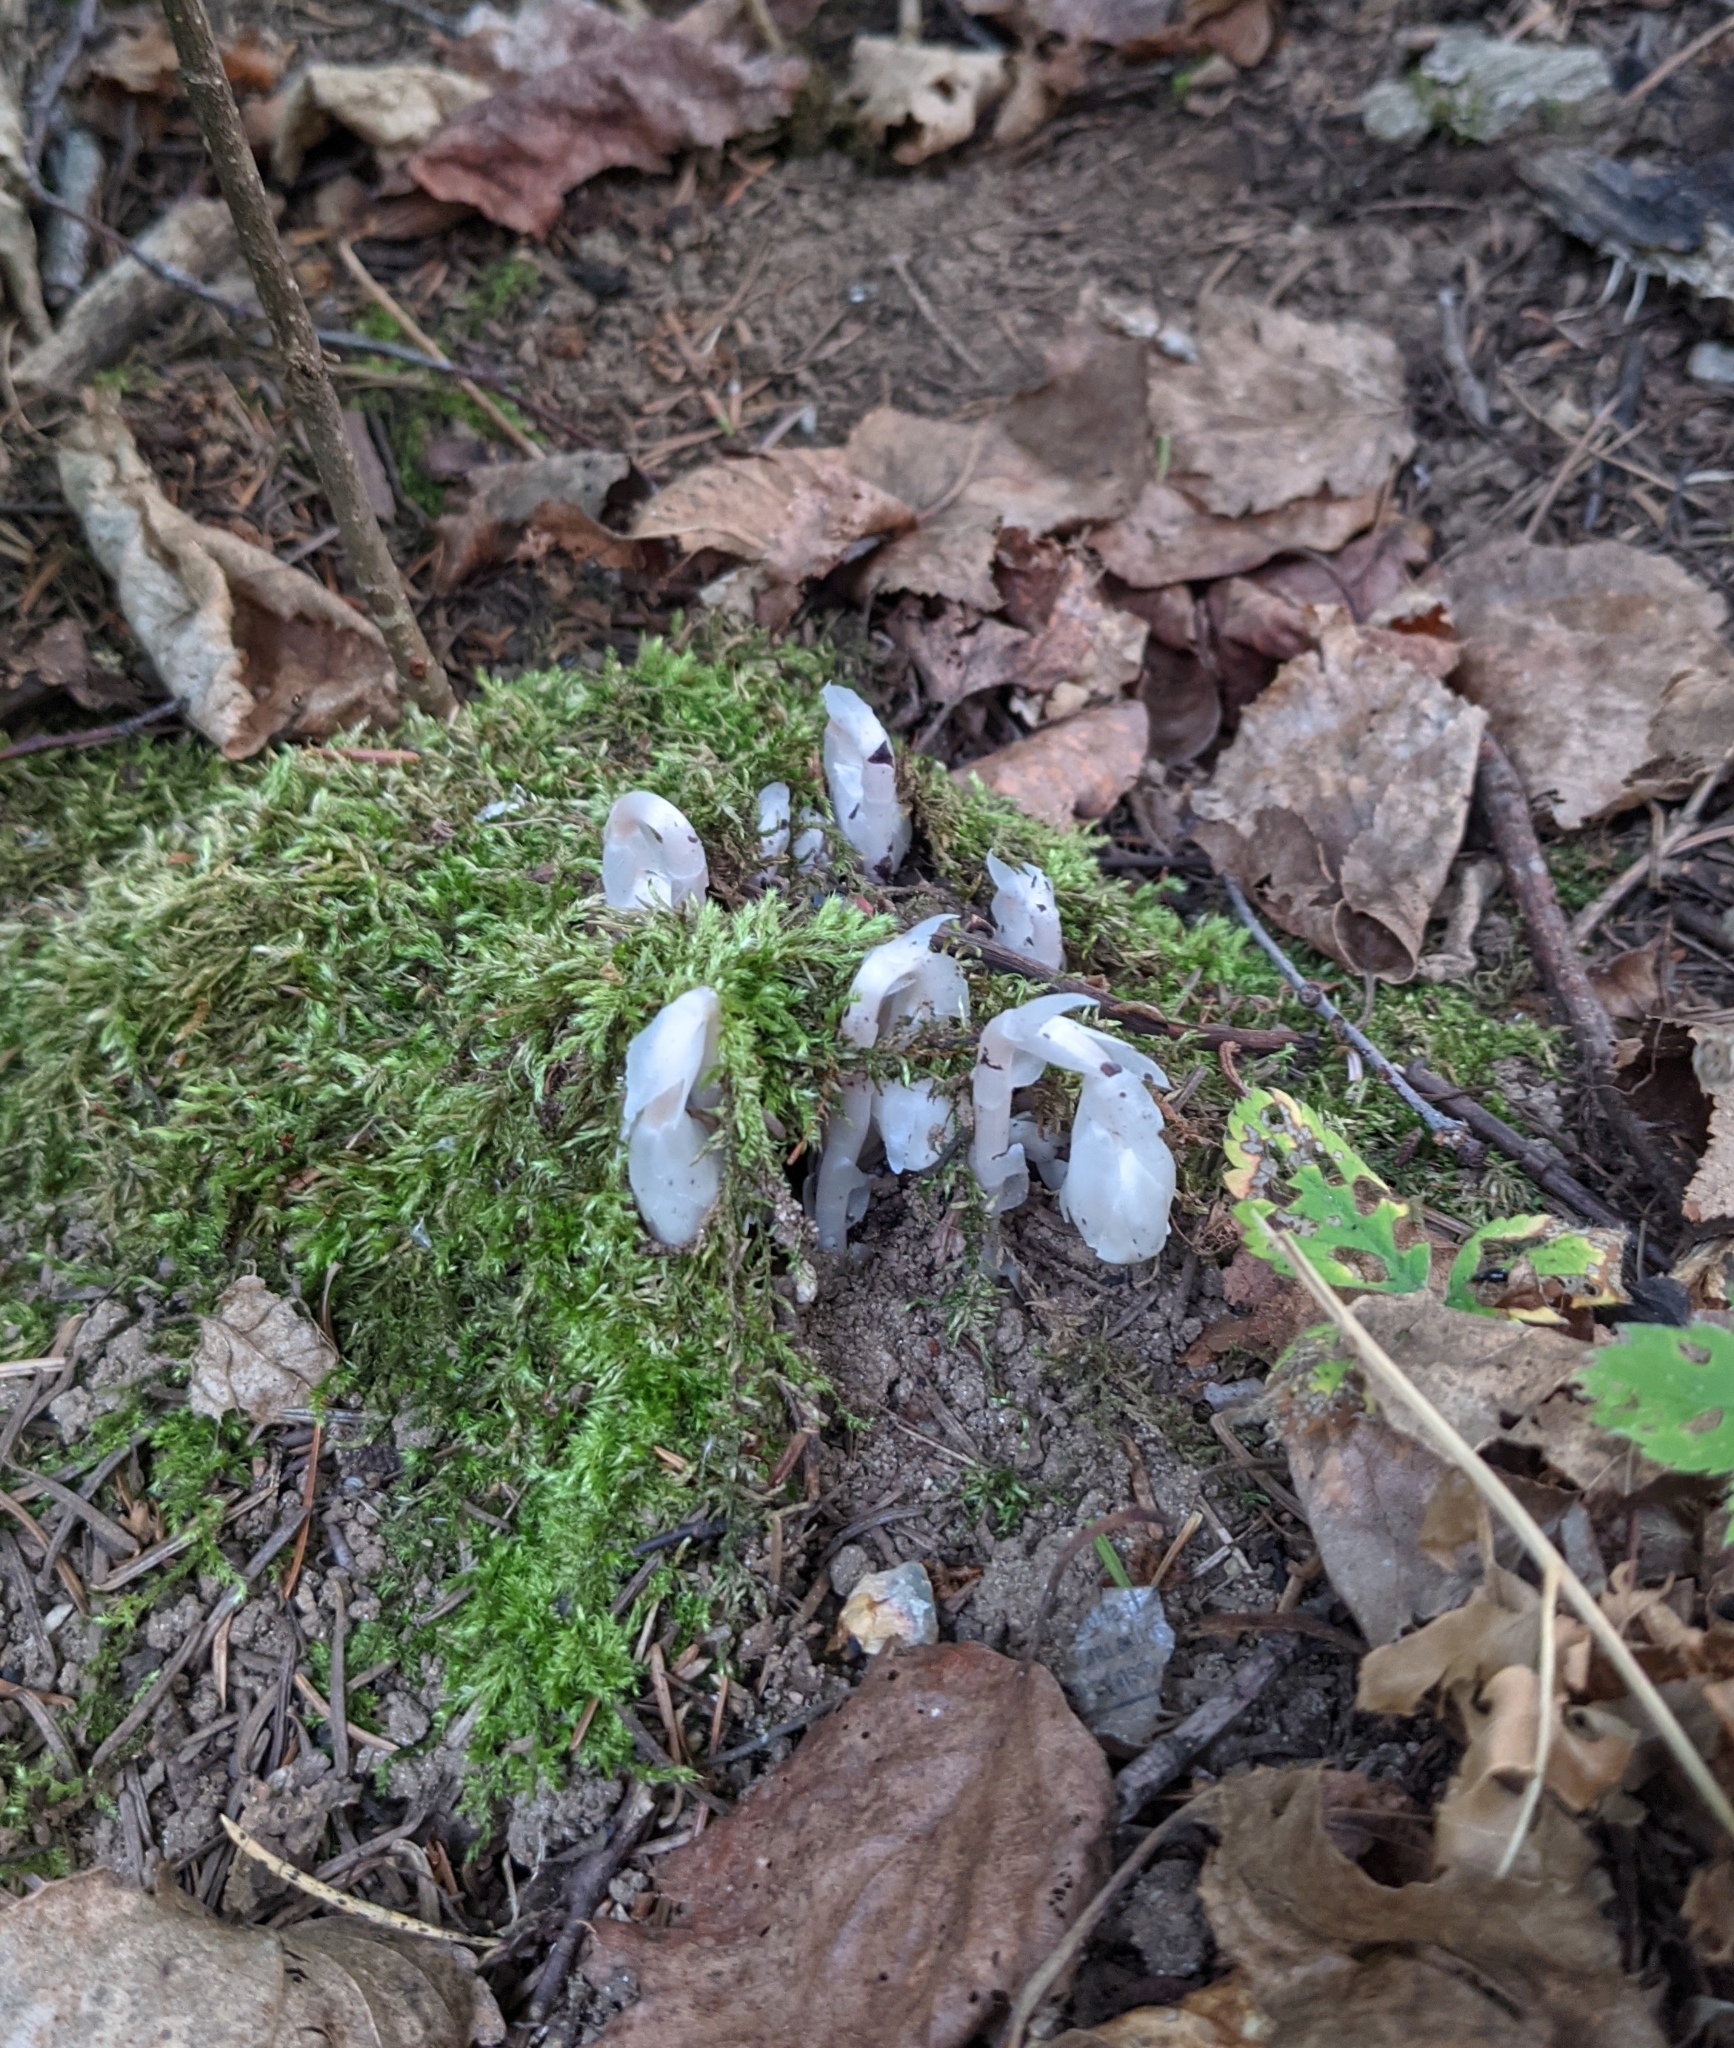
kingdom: Plantae
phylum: Tracheophyta
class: Magnoliopsida
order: Ericales
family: Ericaceae
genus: Monotropa
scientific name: Monotropa uniflora
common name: Convulsion root
